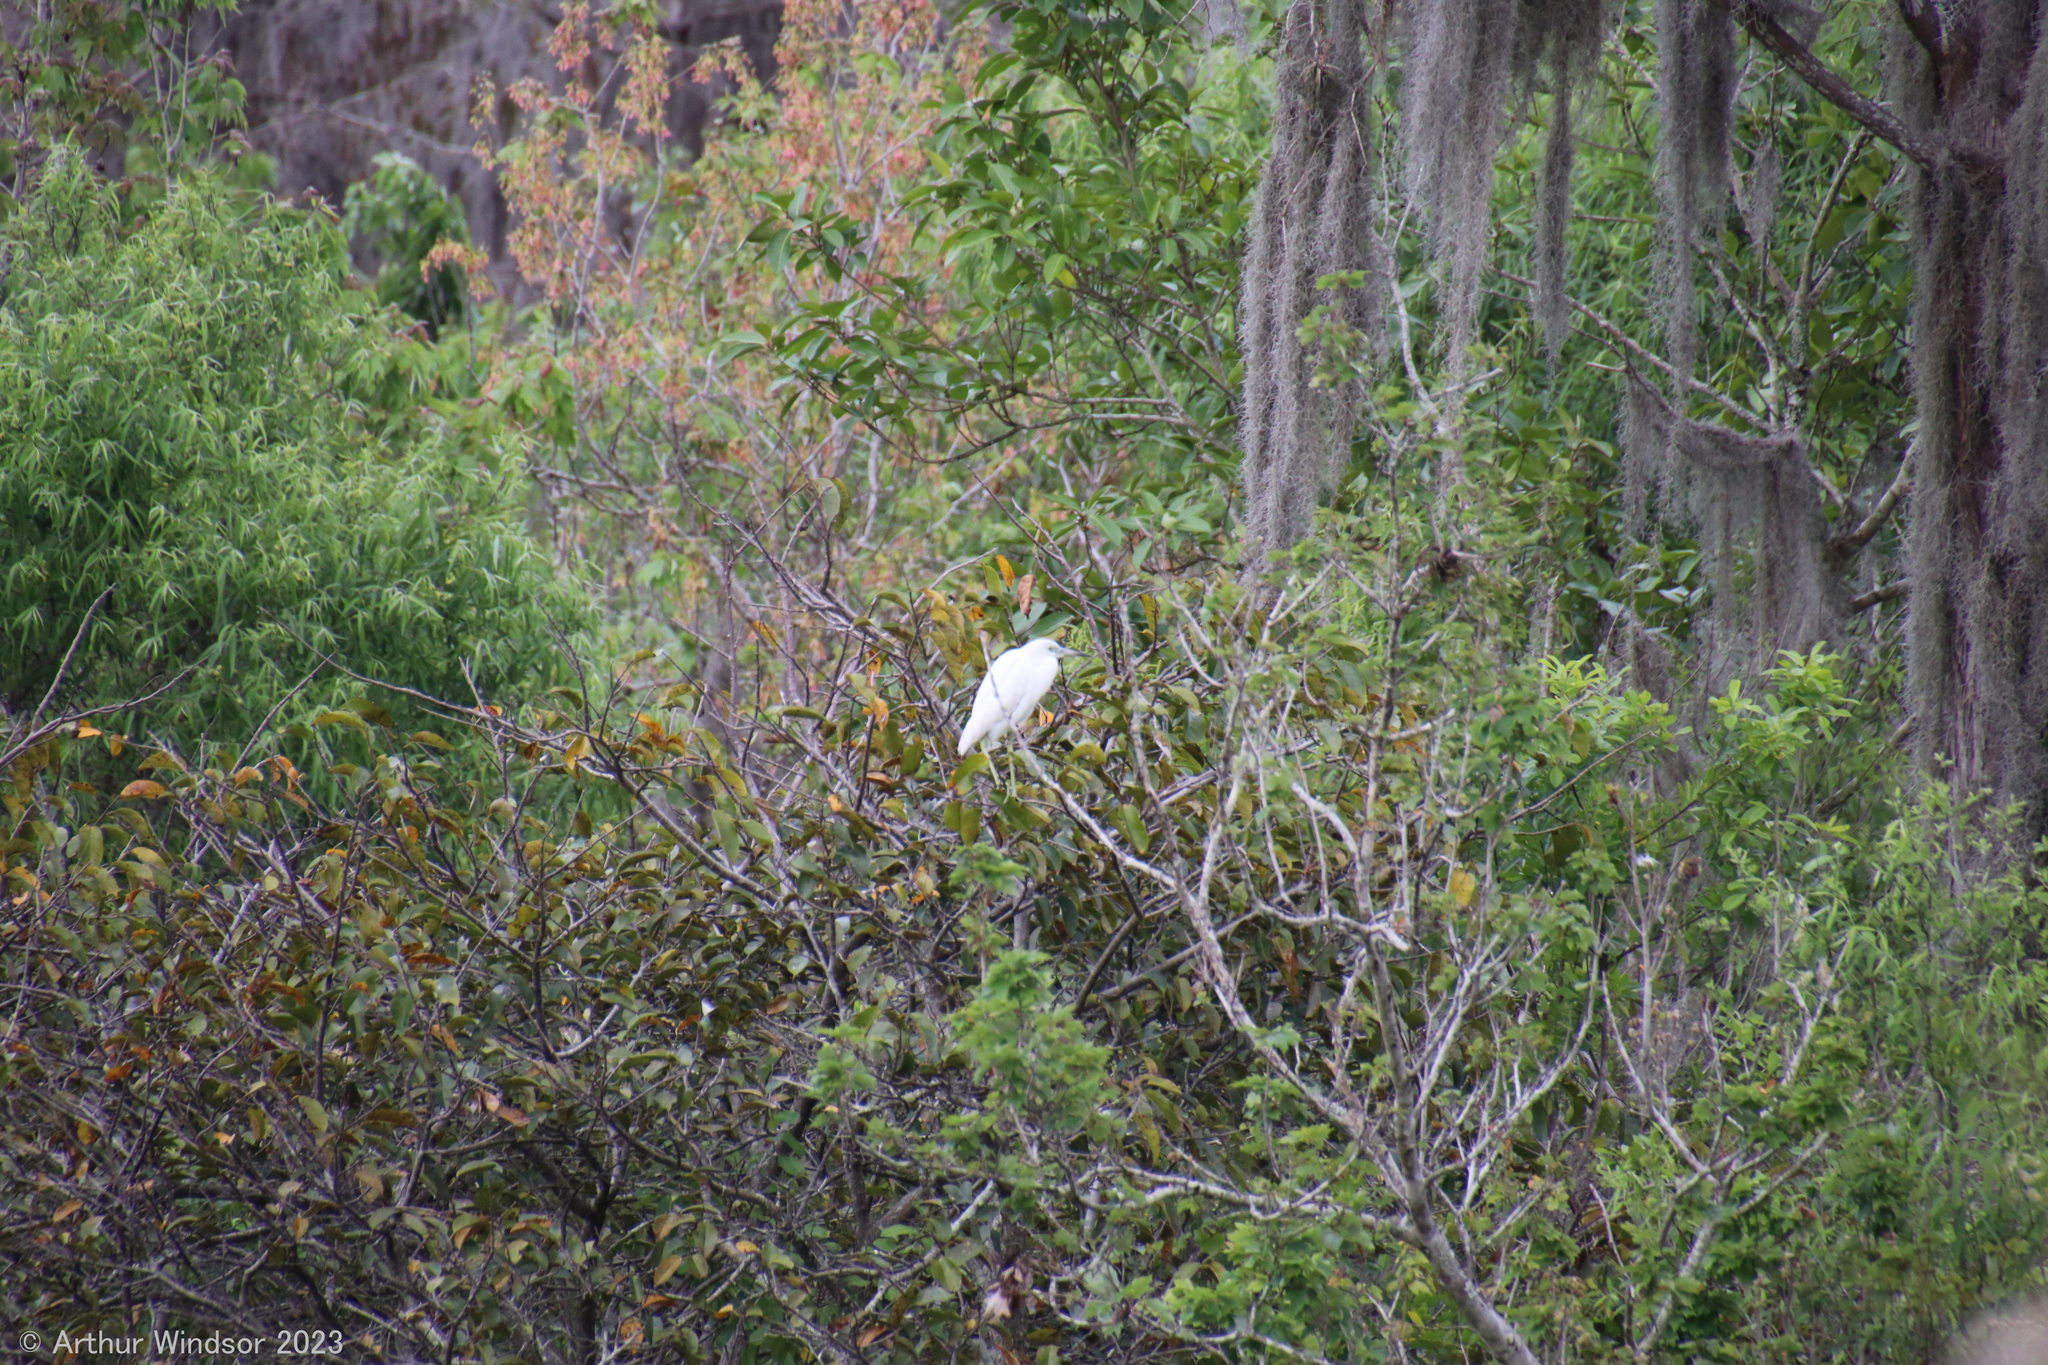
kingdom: Animalia
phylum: Chordata
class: Aves
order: Pelecaniformes
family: Ardeidae
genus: Egretta
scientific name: Egretta caerulea
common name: Little blue heron
